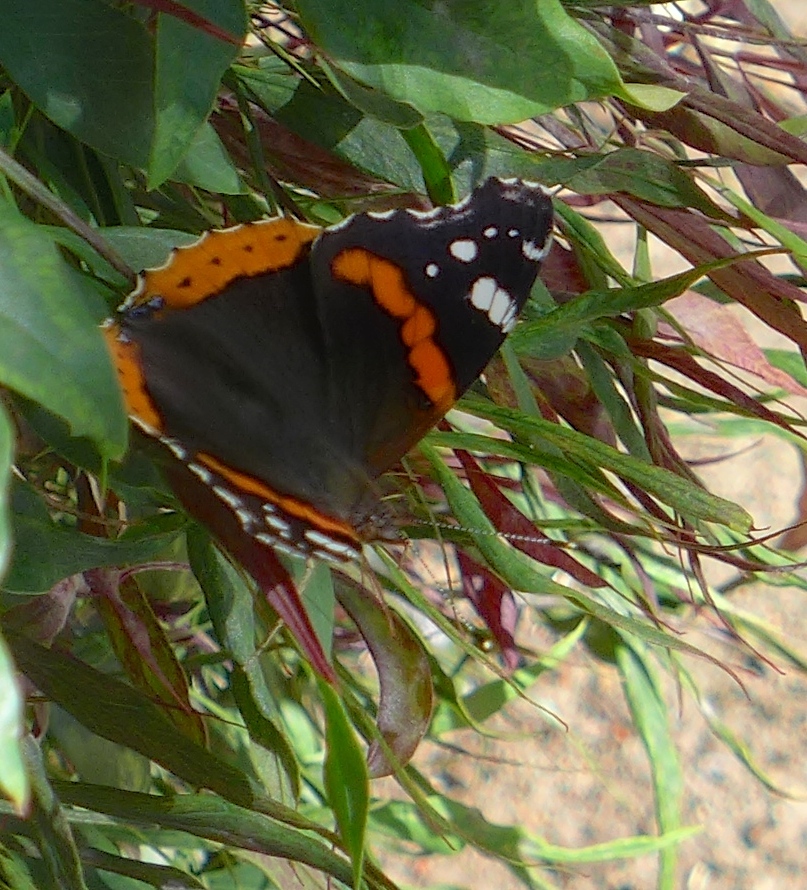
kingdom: Animalia
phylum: Arthropoda
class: Insecta
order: Lepidoptera
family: Nymphalidae
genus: Vanessa
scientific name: Vanessa atalanta
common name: Red admiral
